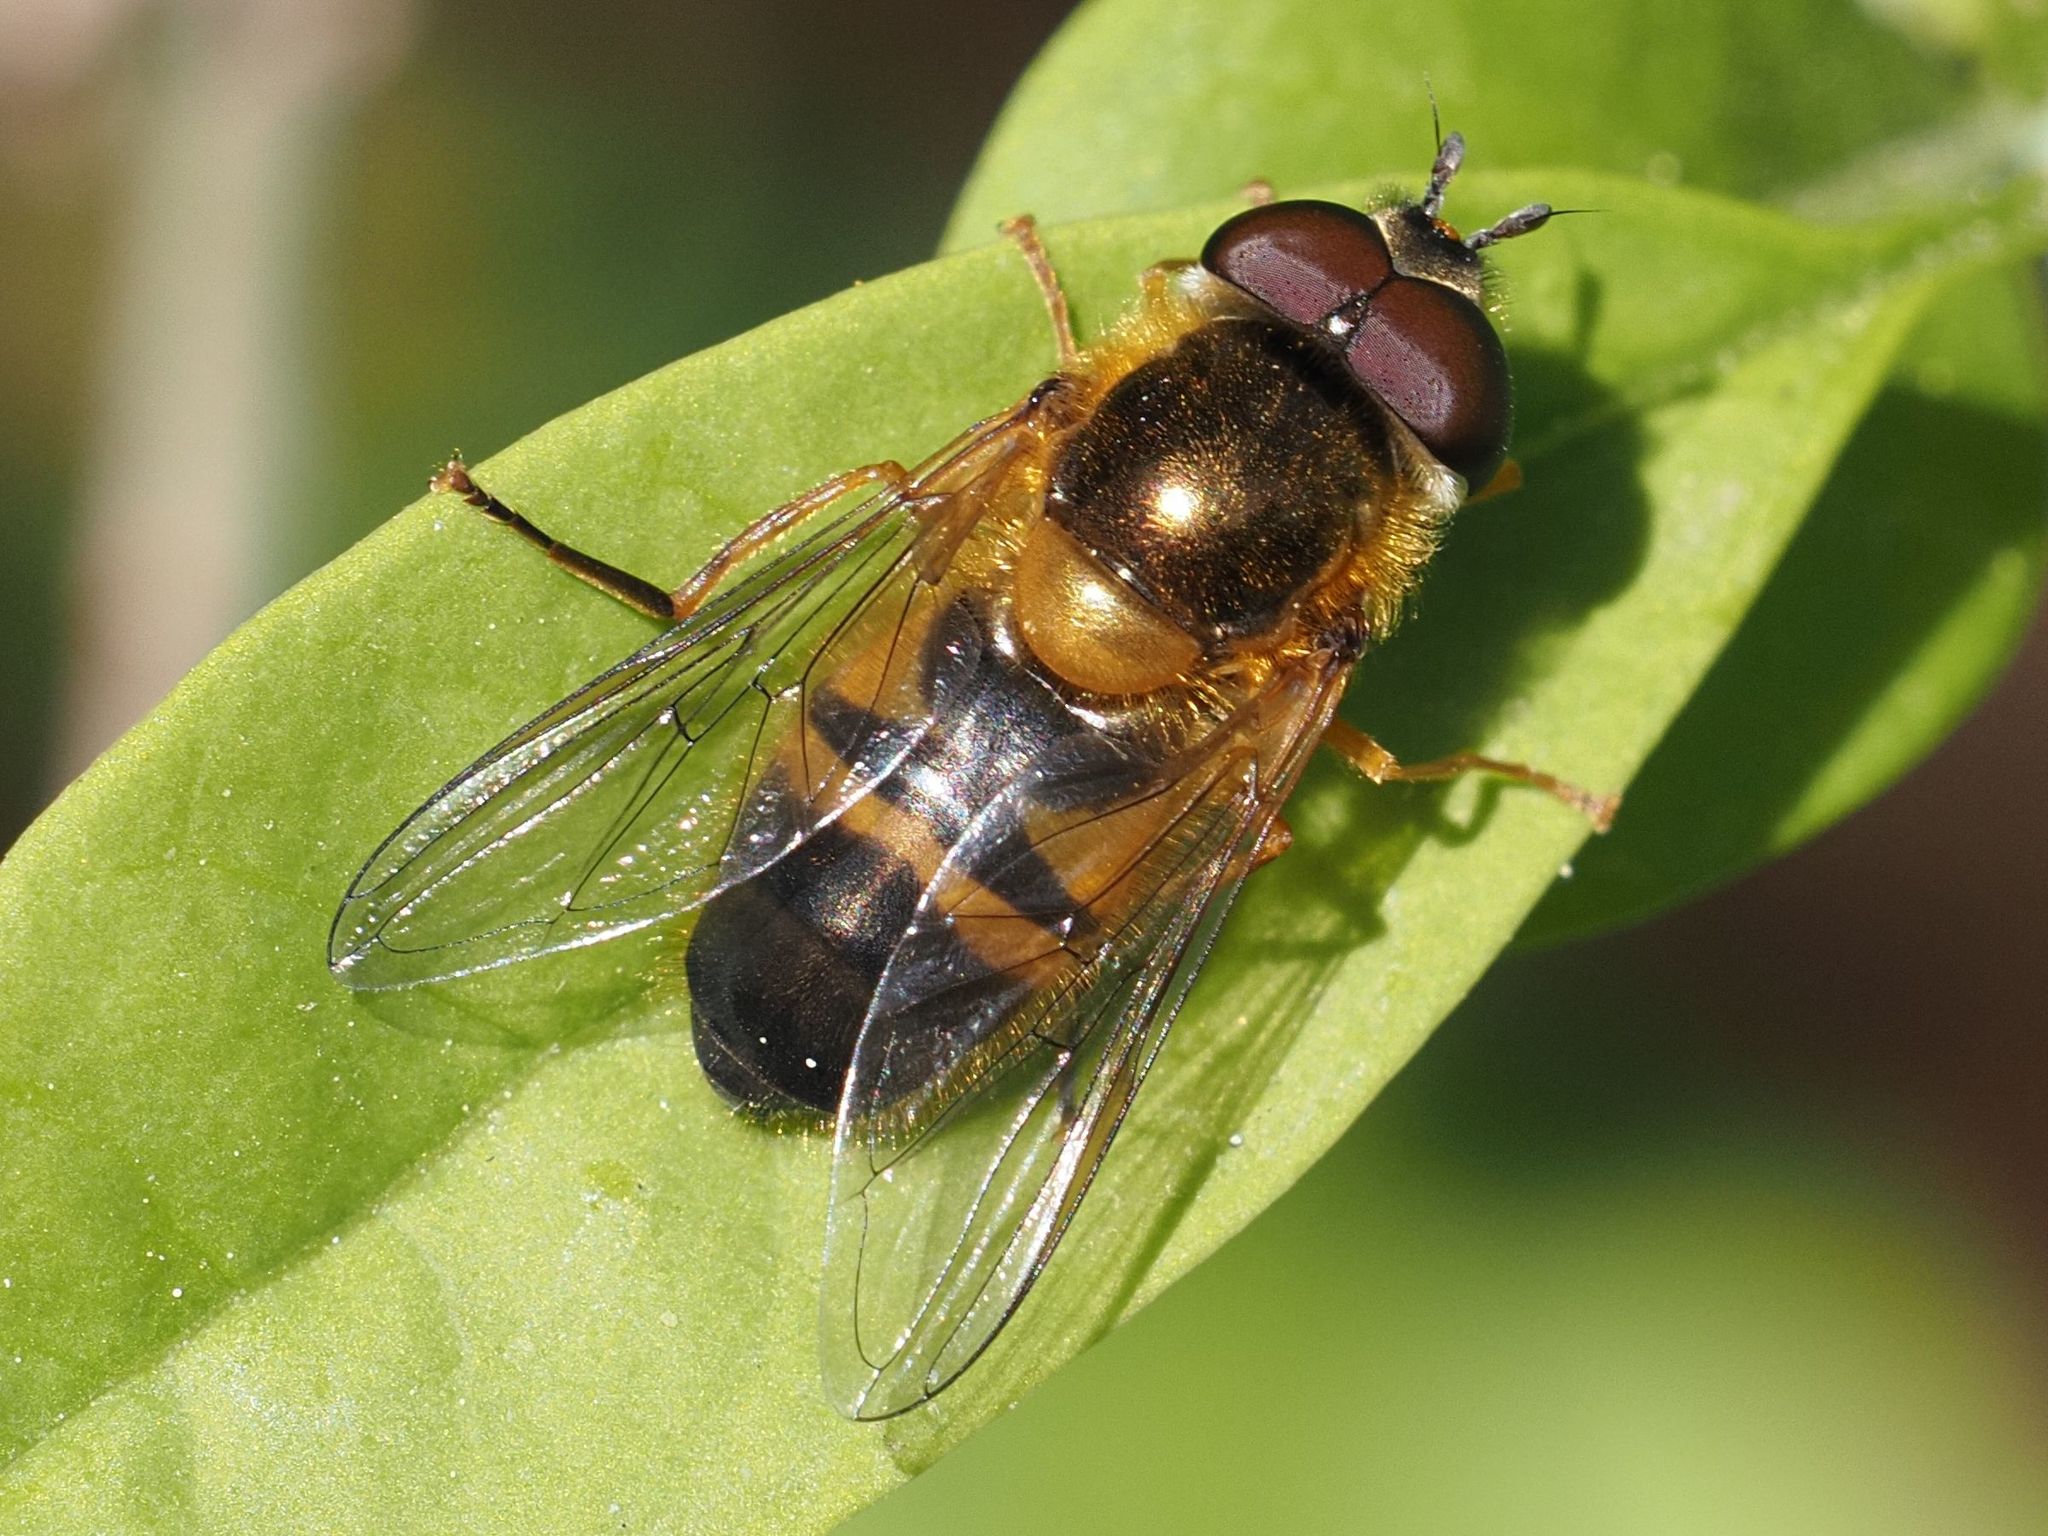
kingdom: Animalia
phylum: Arthropoda
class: Insecta
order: Diptera
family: Syrphidae
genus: Epistrophe
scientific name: Epistrophe eligans
